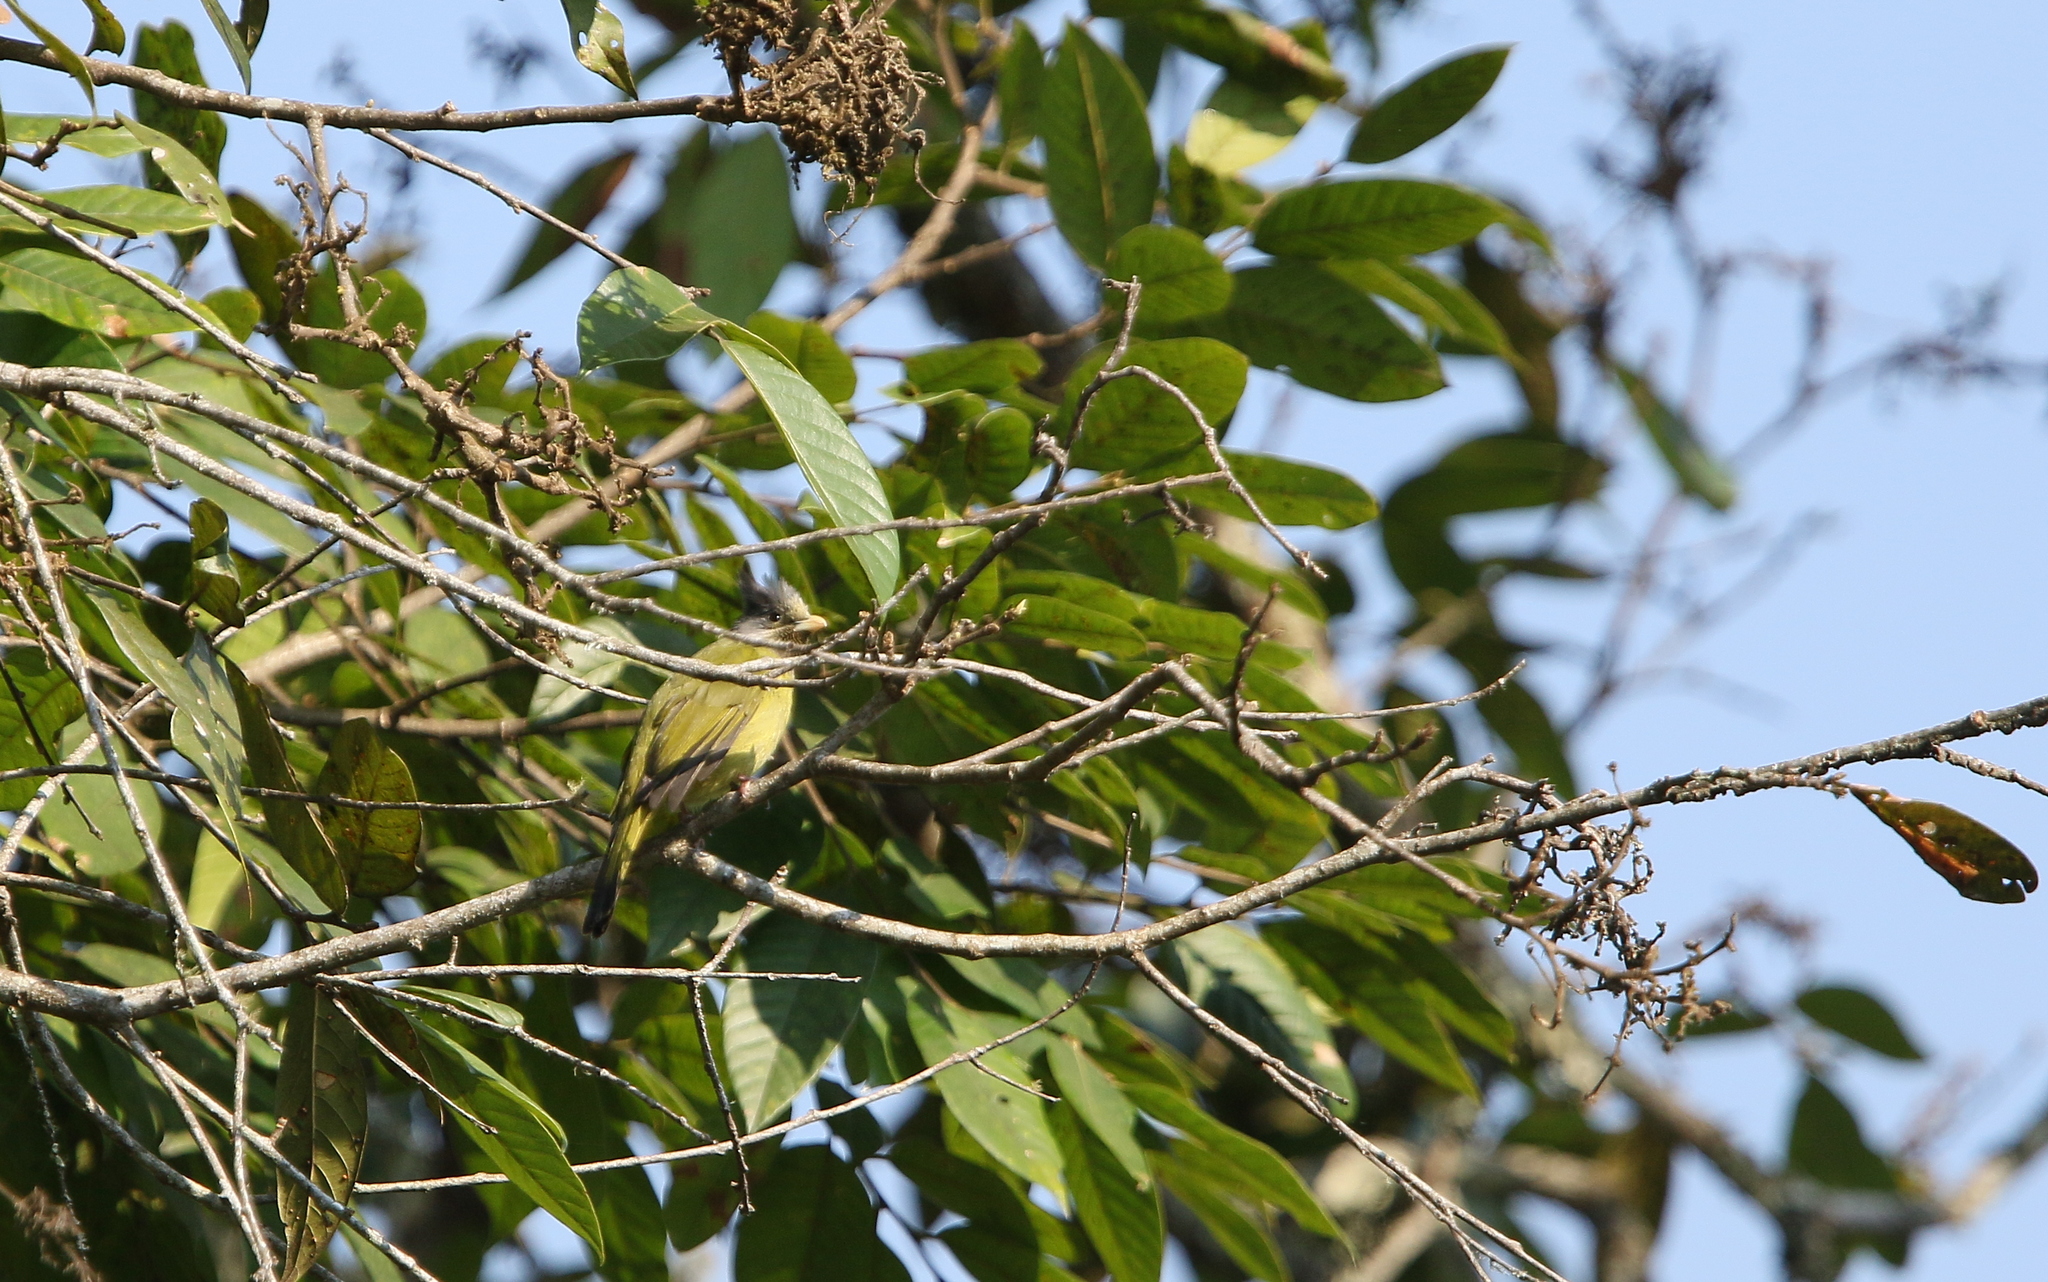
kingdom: Animalia
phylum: Chordata
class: Aves
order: Passeriformes
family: Pycnonotidae
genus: Spizixos
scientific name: Spizixos canifrons
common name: Crested finchbill
